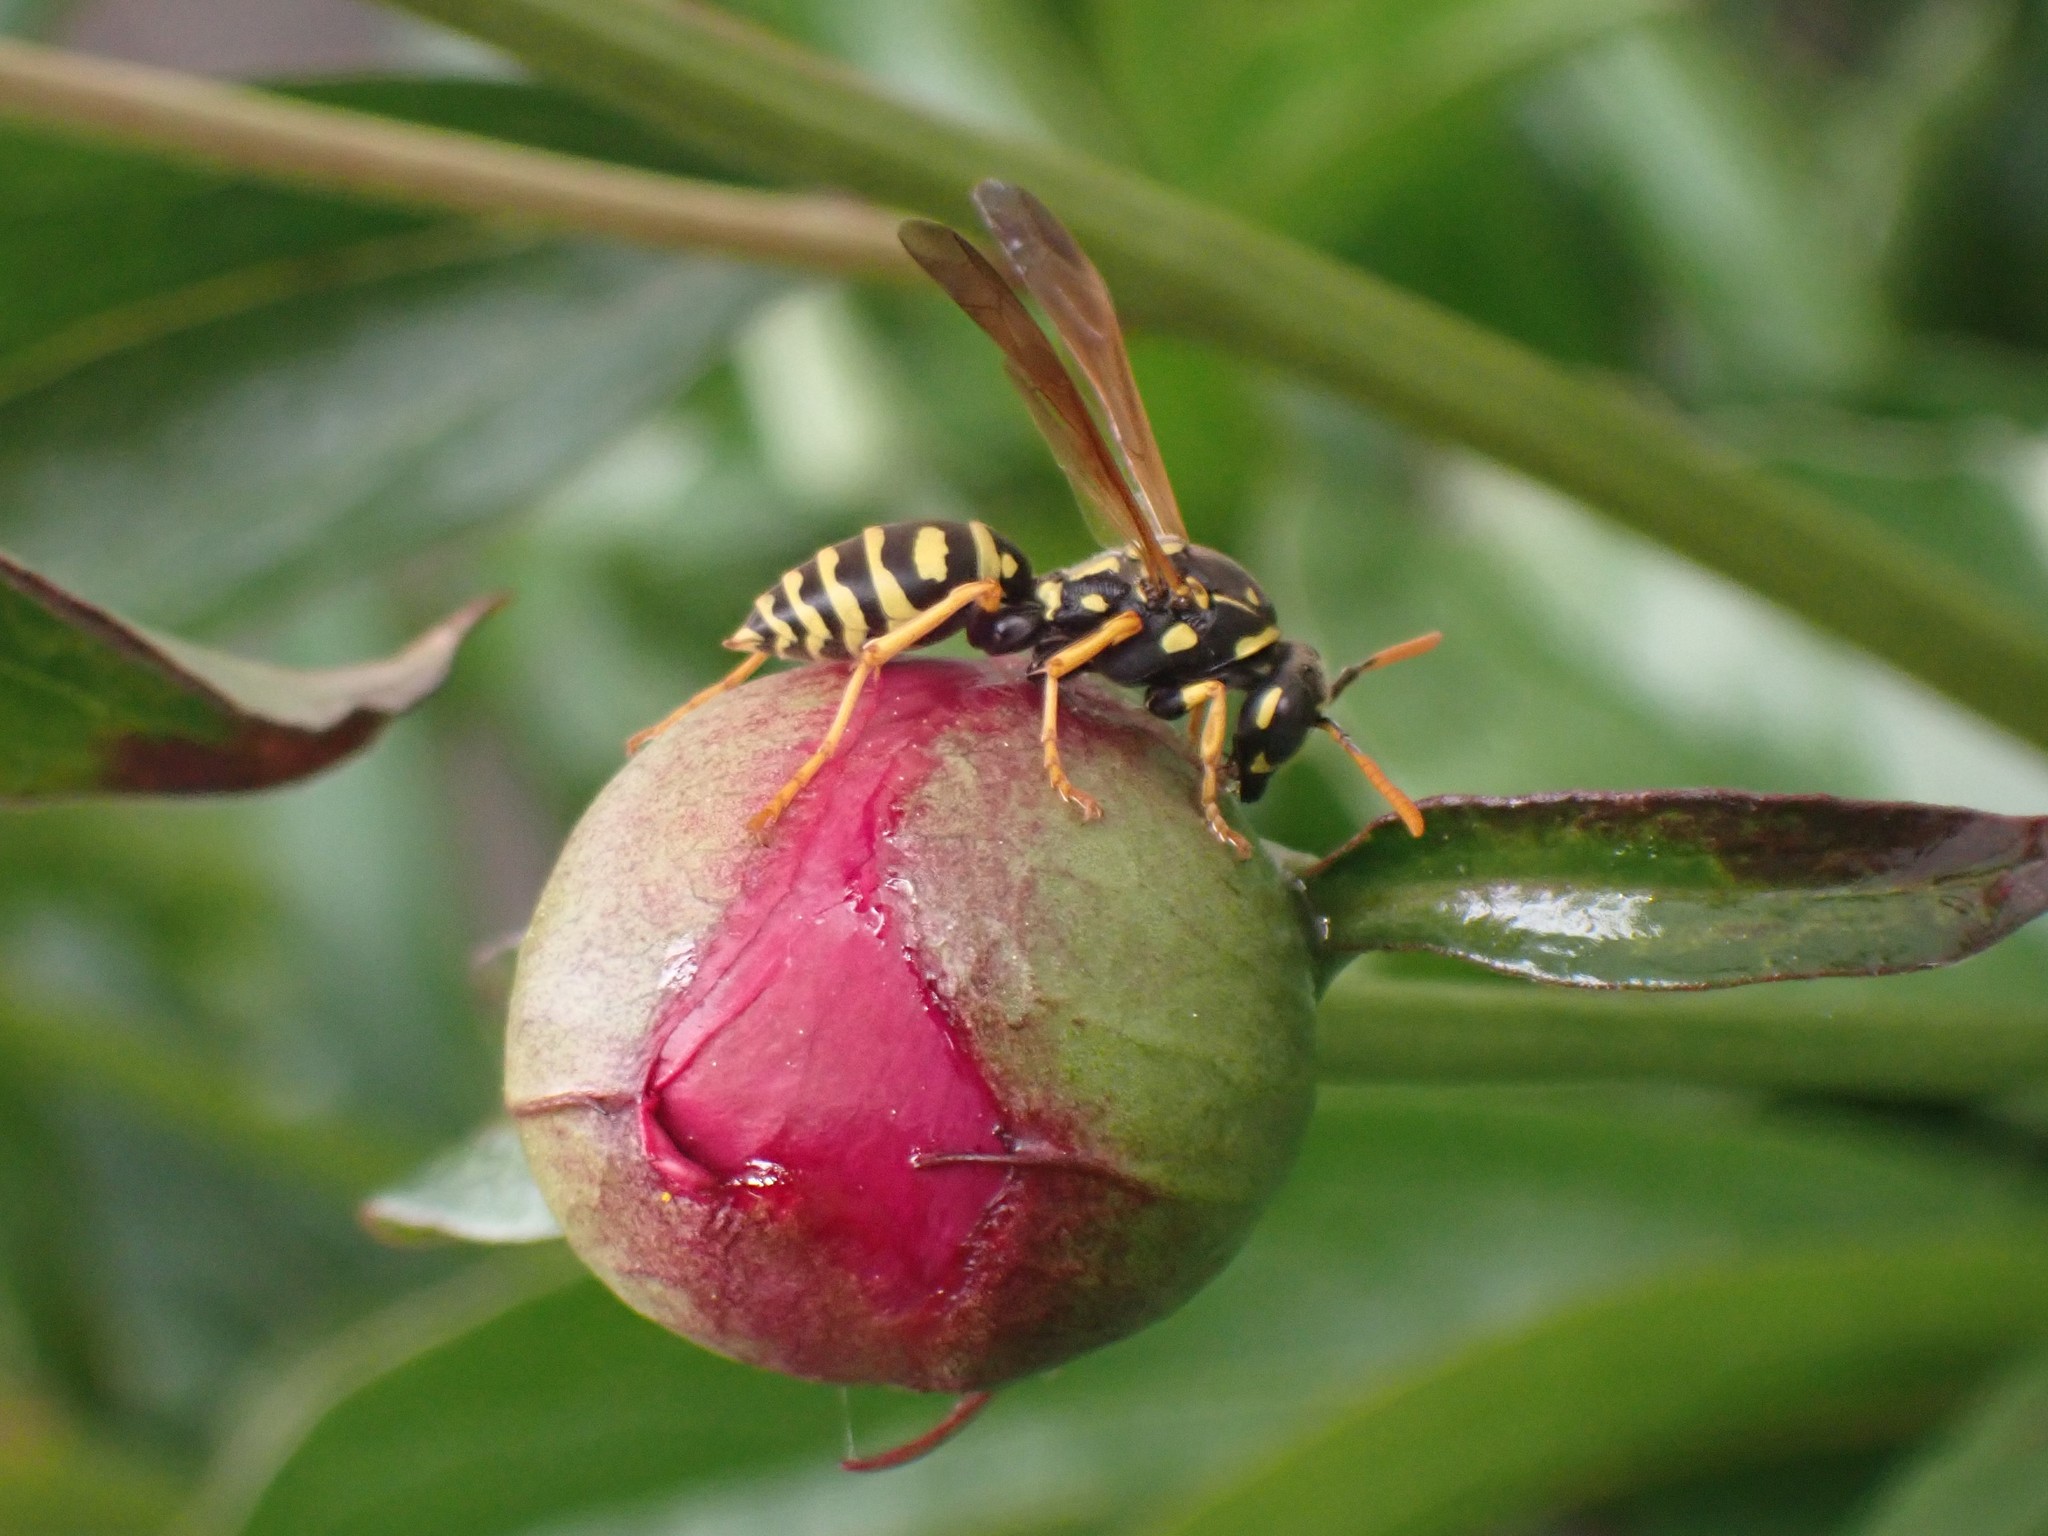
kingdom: Animalia
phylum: Arthropoda
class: Insecta
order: Hymenoptera
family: Eumenidae
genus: Polistes
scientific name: Polistes dominula
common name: Paper wasp
